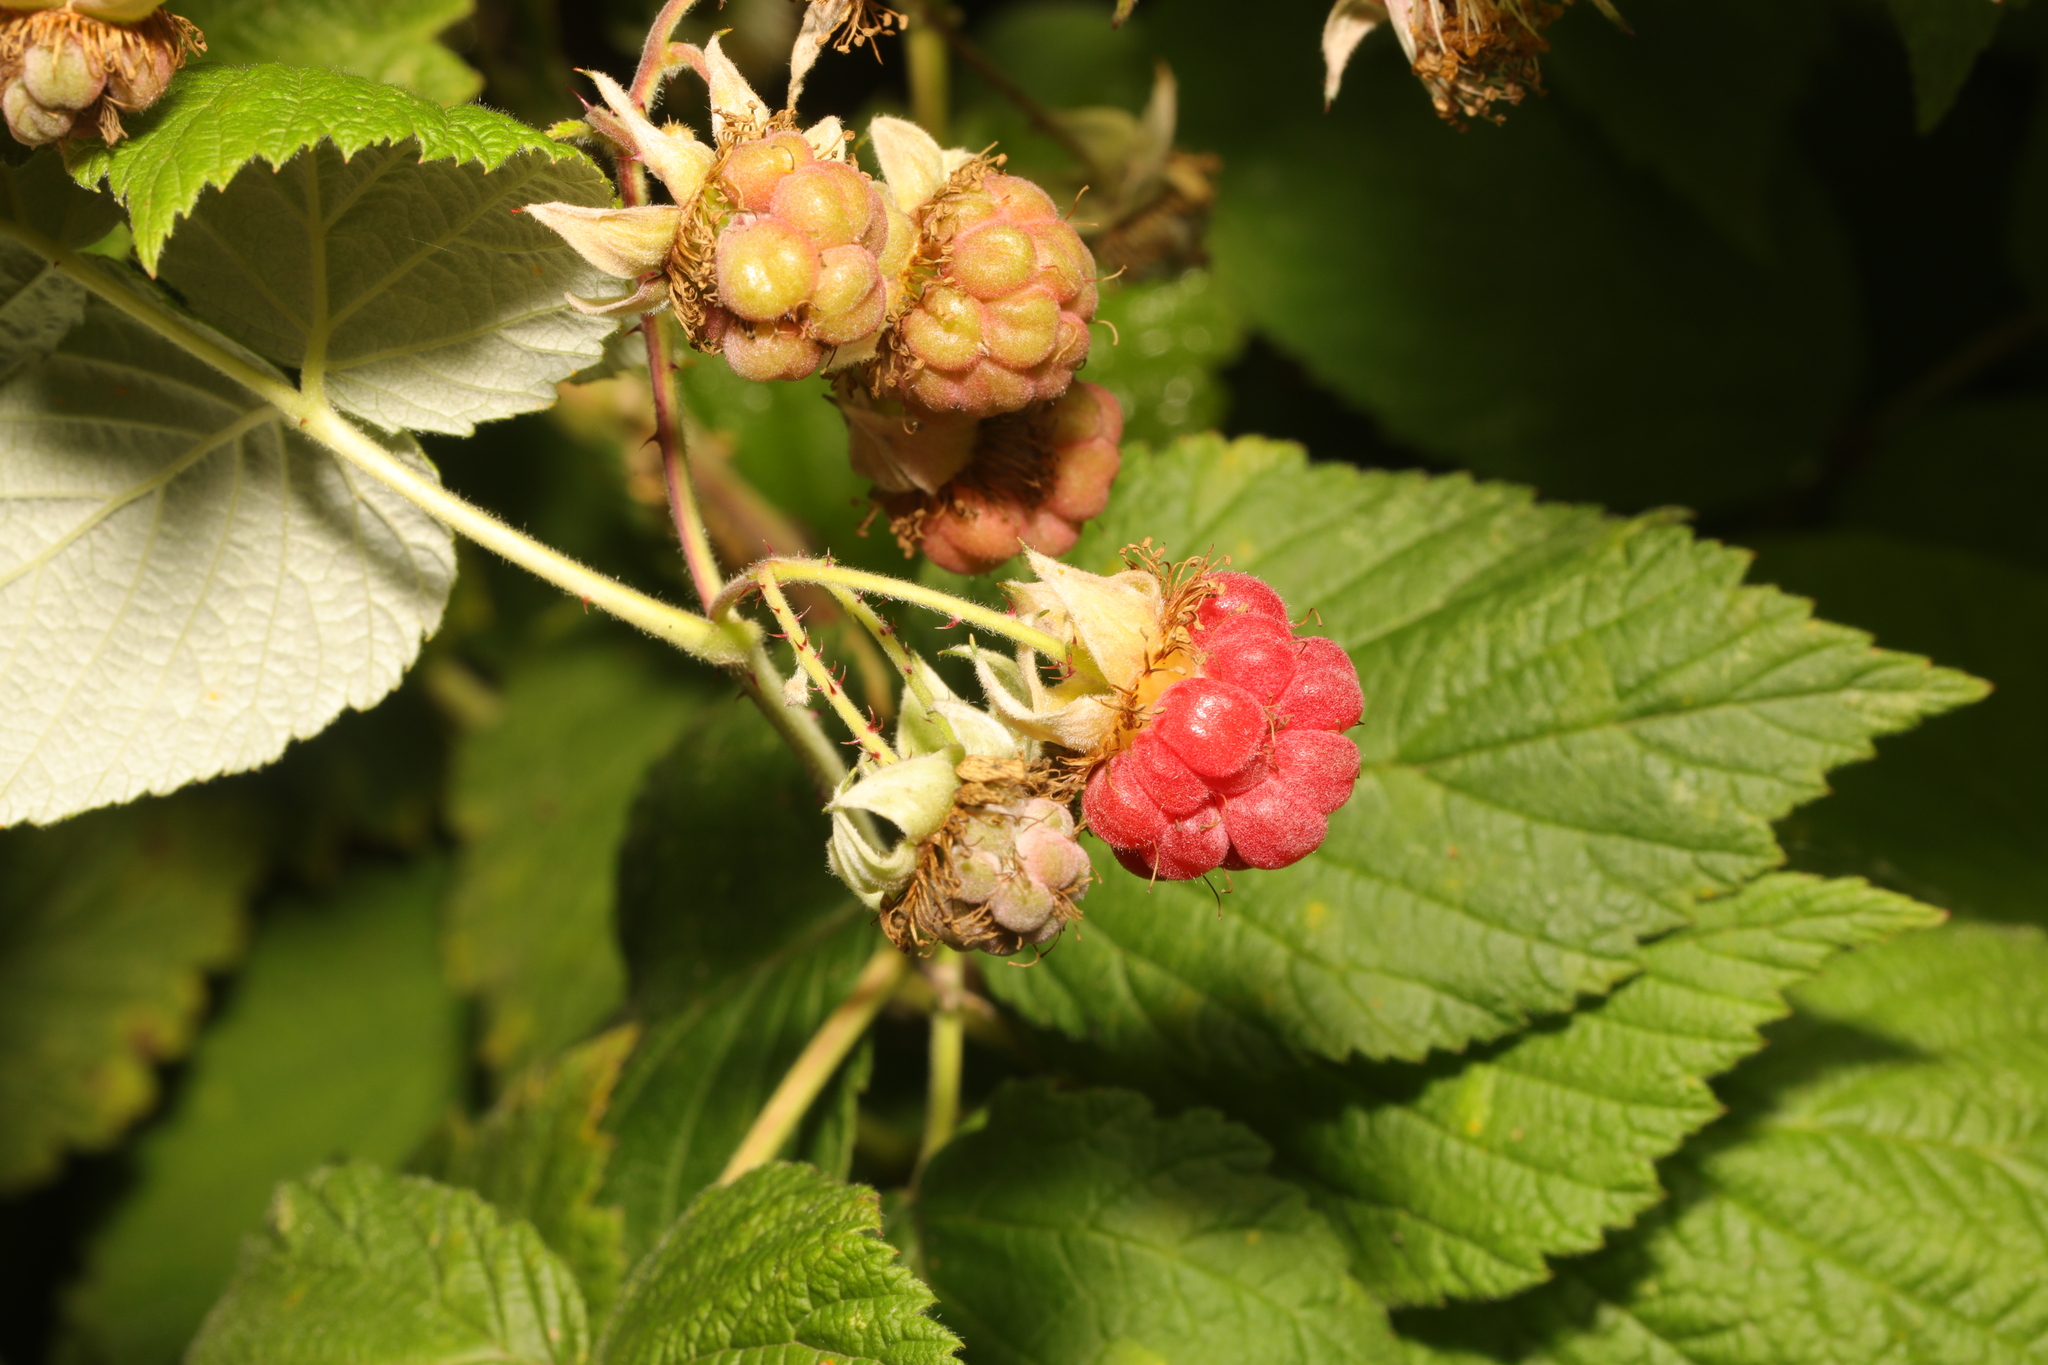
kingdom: Plantae
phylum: Tracheophyta
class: Magnoliopsida
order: Rosales
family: Rosaceae
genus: Rubus
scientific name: Rubus idaeus
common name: Raspberry
